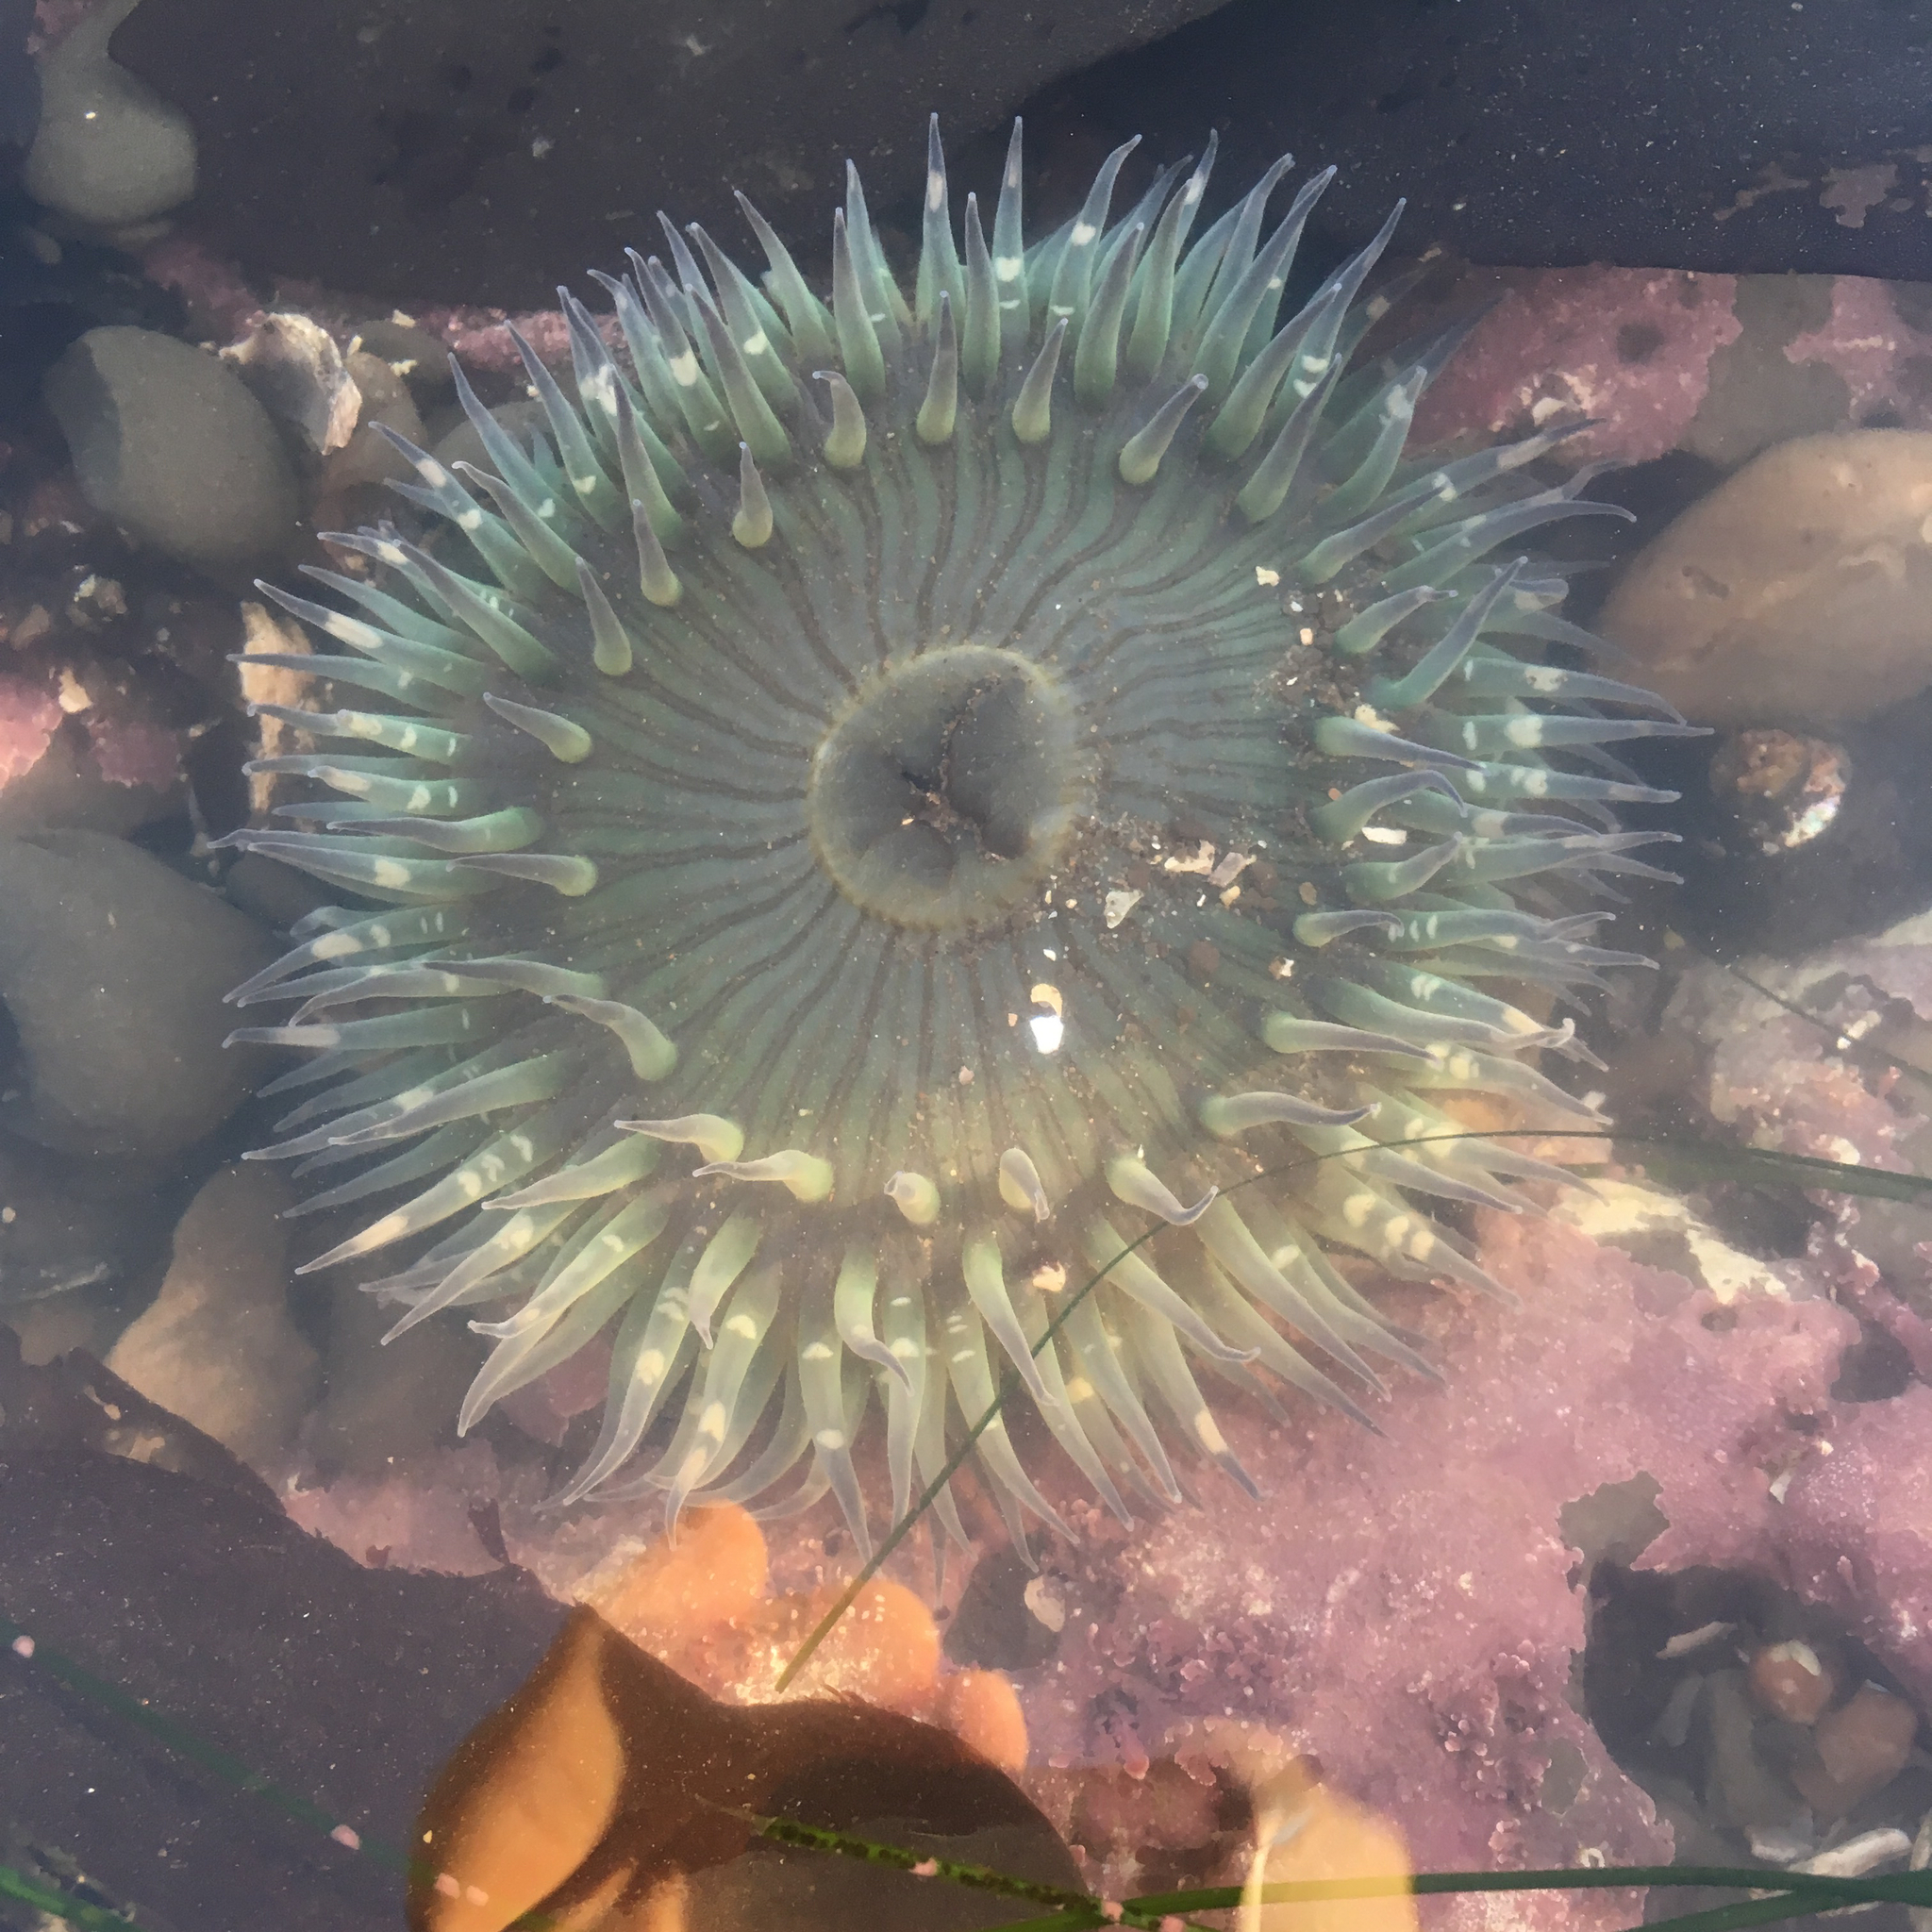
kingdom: Animalia
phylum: Cnidaria
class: Anthozoa
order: Actiniaria
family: Actiniidae
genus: Anthopleura
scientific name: Anthopleura sola
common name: Sun anemone
